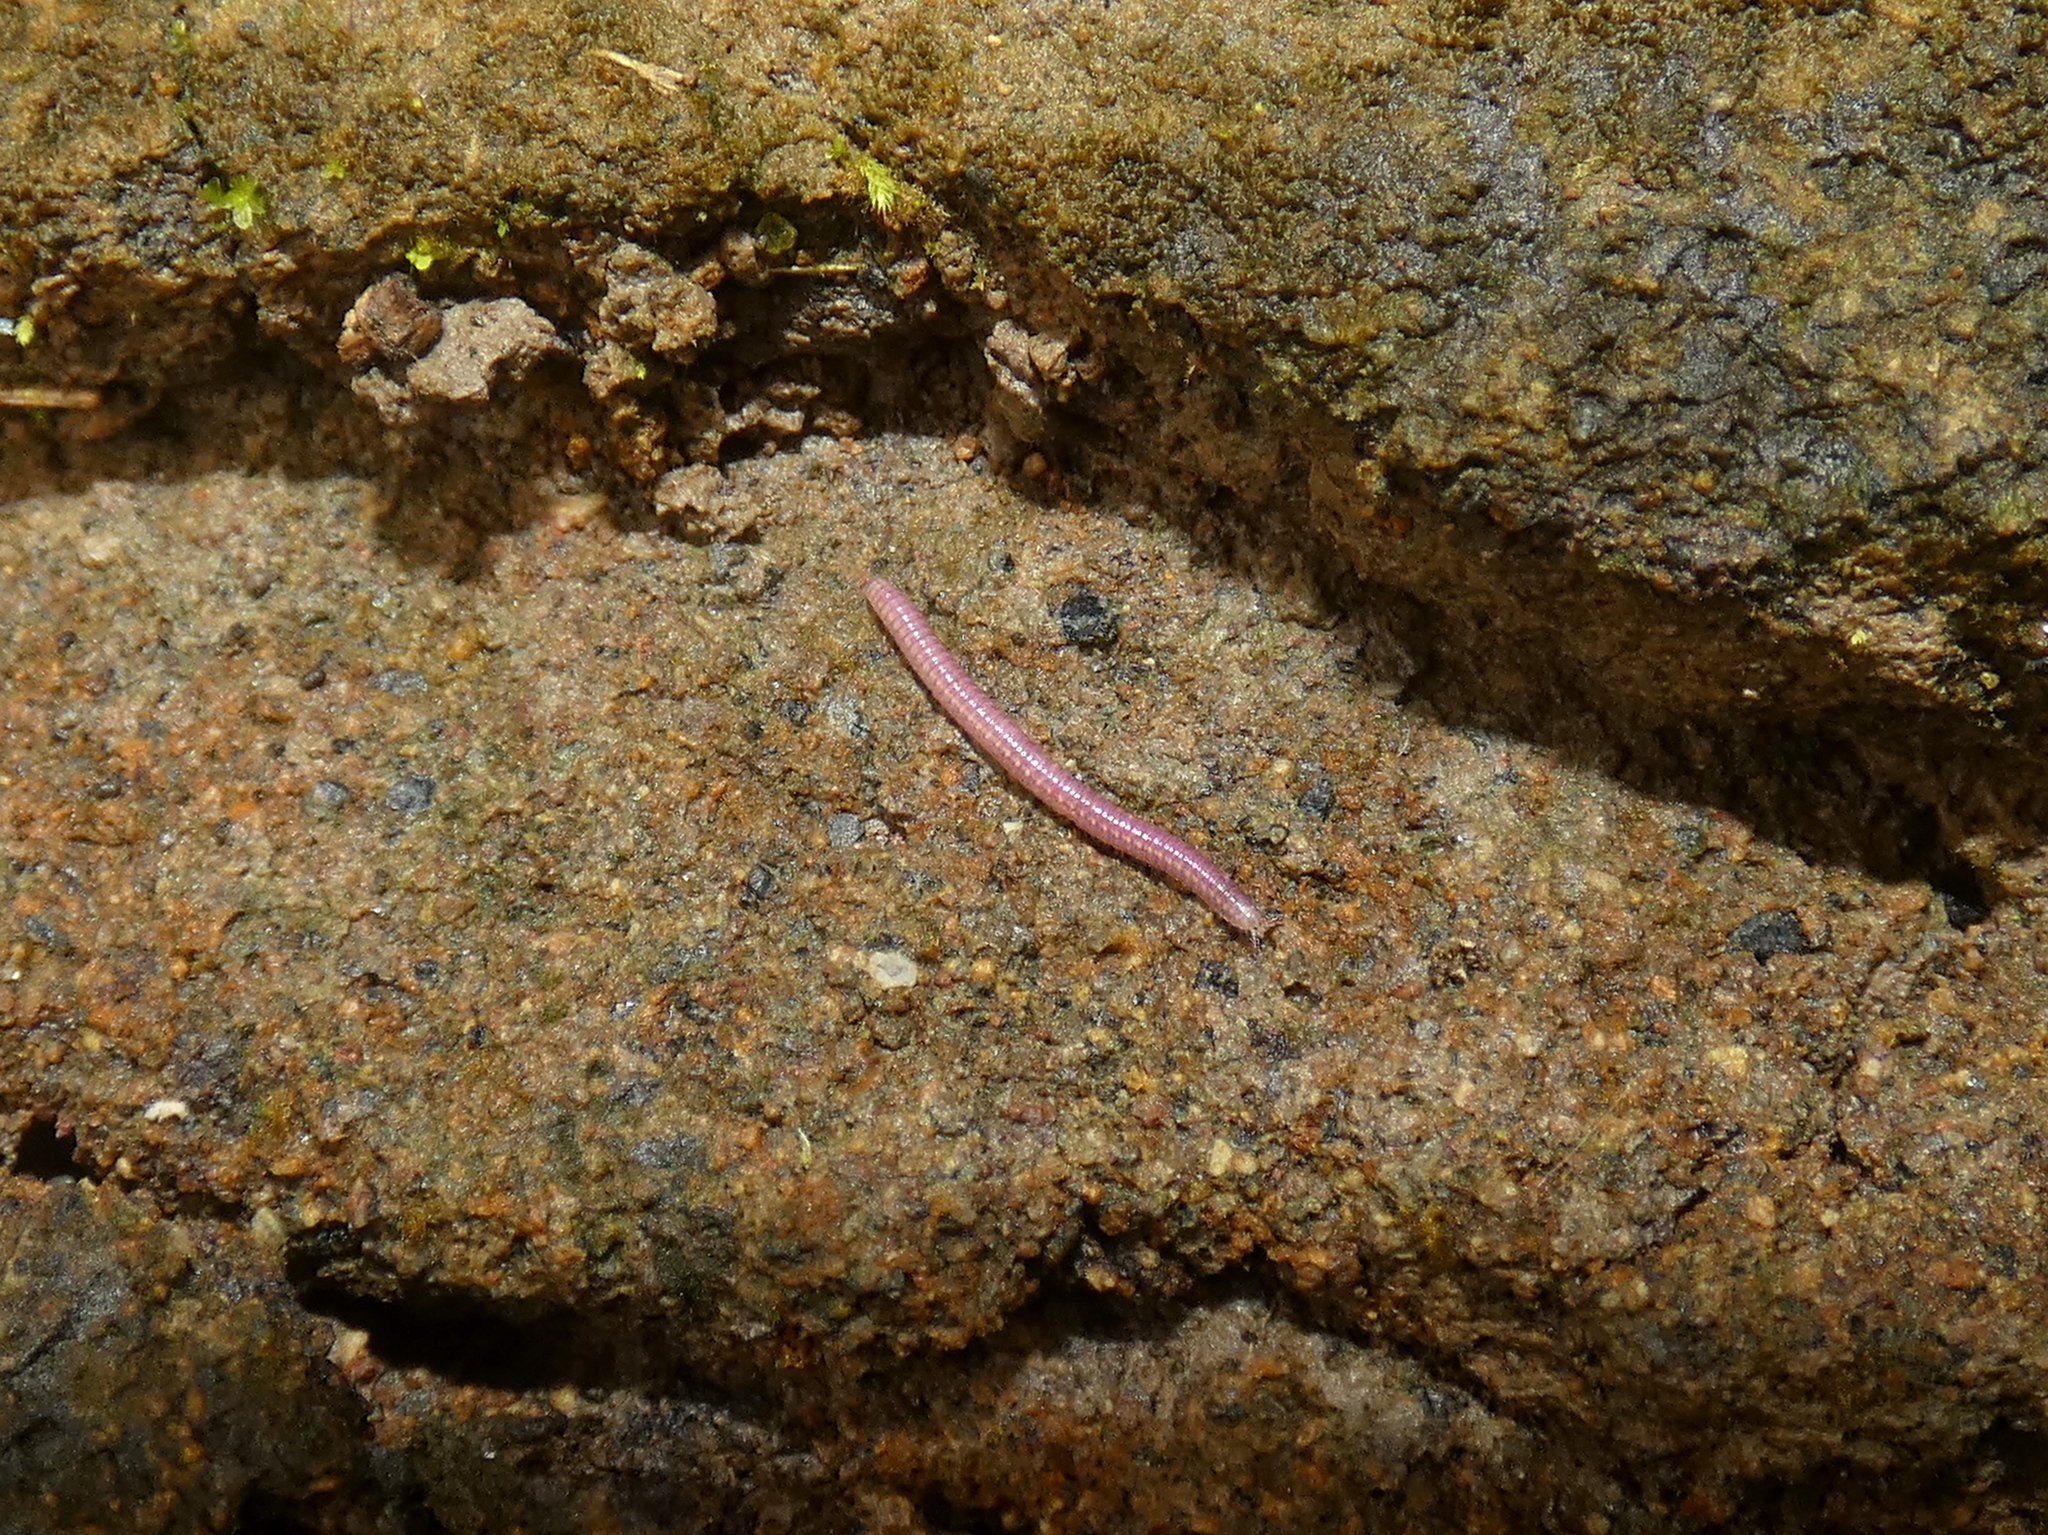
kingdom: Animalia
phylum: Arthropoda
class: Diplopoda
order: Polyzoniida
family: Siphonotidae
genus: Rhinotus
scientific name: Rhinotus purpureus
